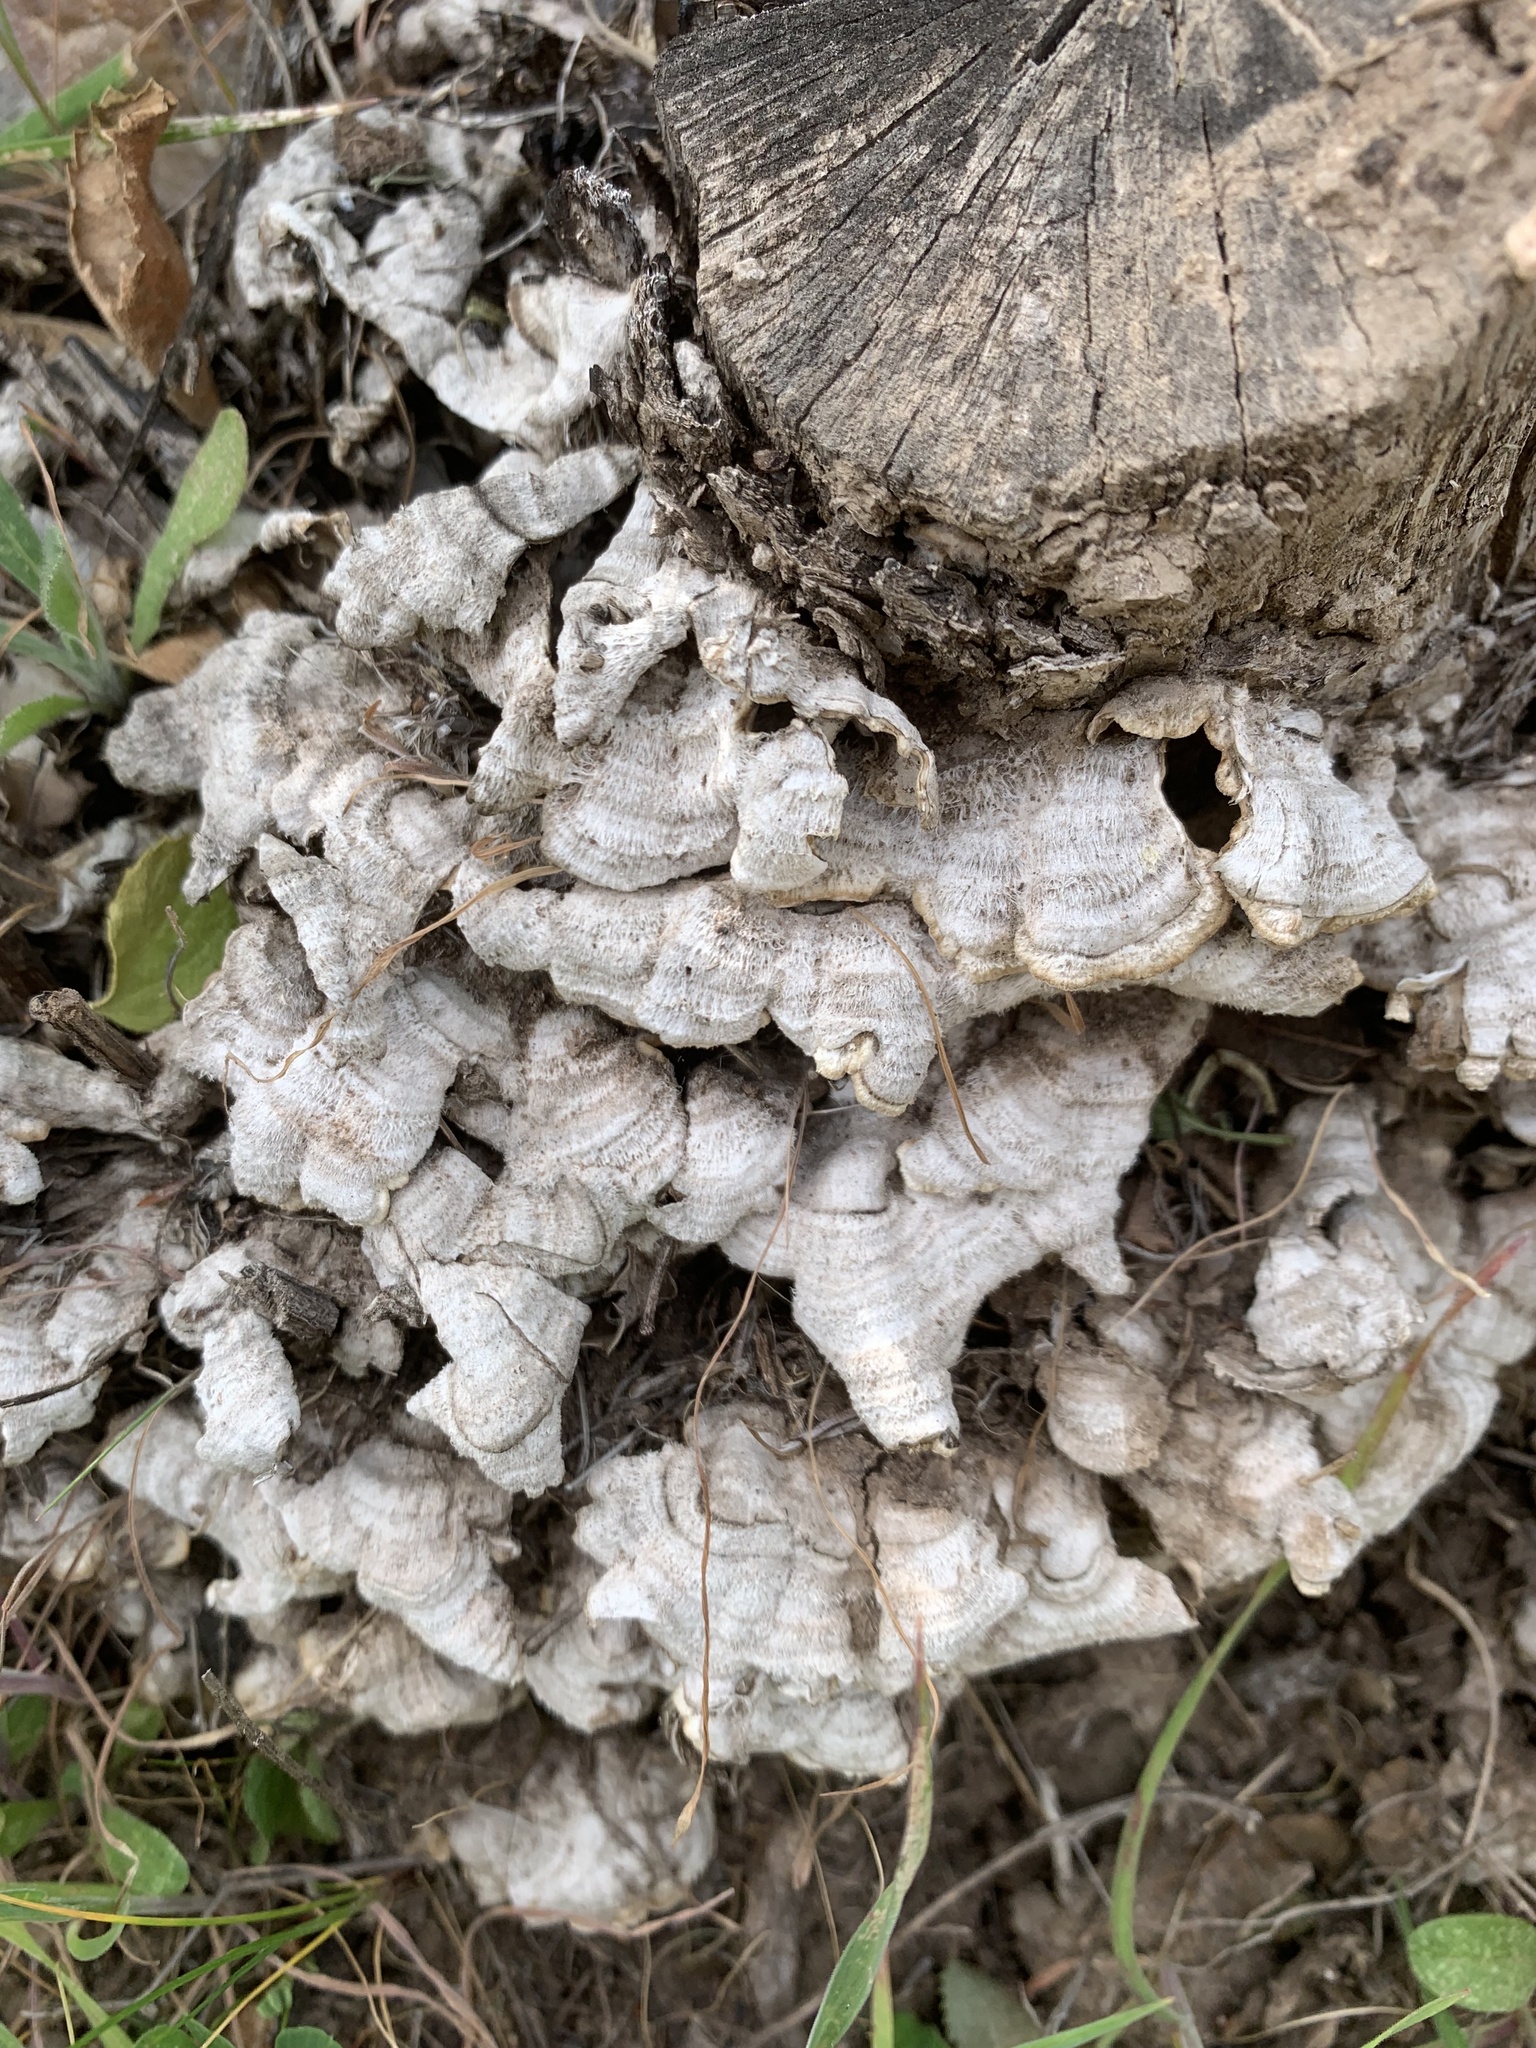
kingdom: Fungi
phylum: Basidiomycota
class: Agaricomycetes
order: Russulales
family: Stereaceae
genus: Stereum
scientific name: Stereum hirsutum
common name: Hairy curtain crust
